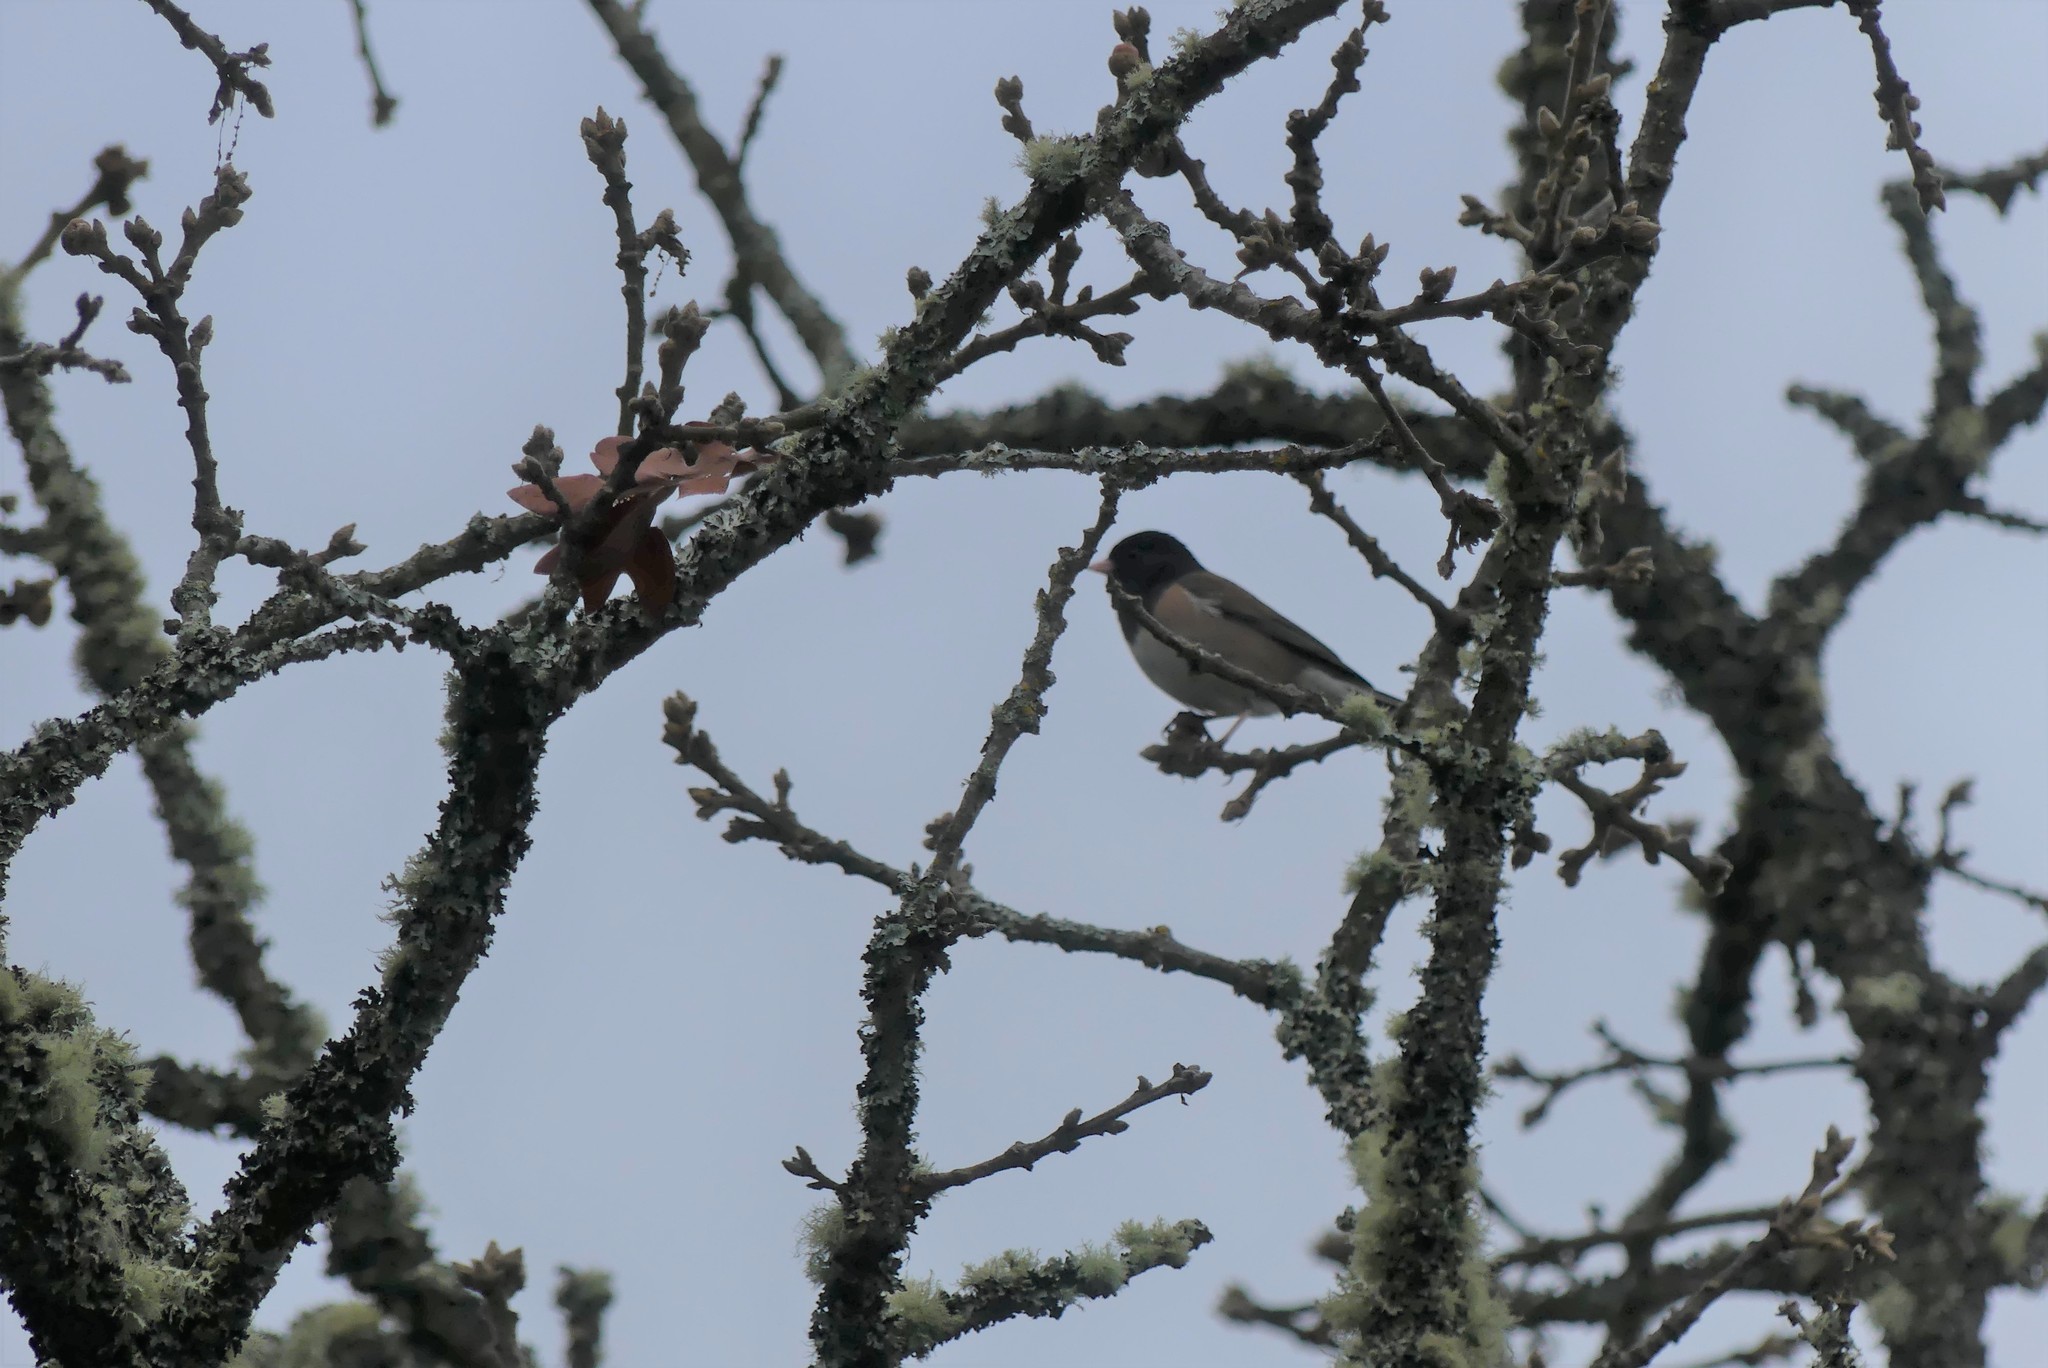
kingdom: Animalia
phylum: Chordata
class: Aves
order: Passeriformes
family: Passerellidae
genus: Junco
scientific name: Junco hyemalis
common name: Dark-eyed junco
